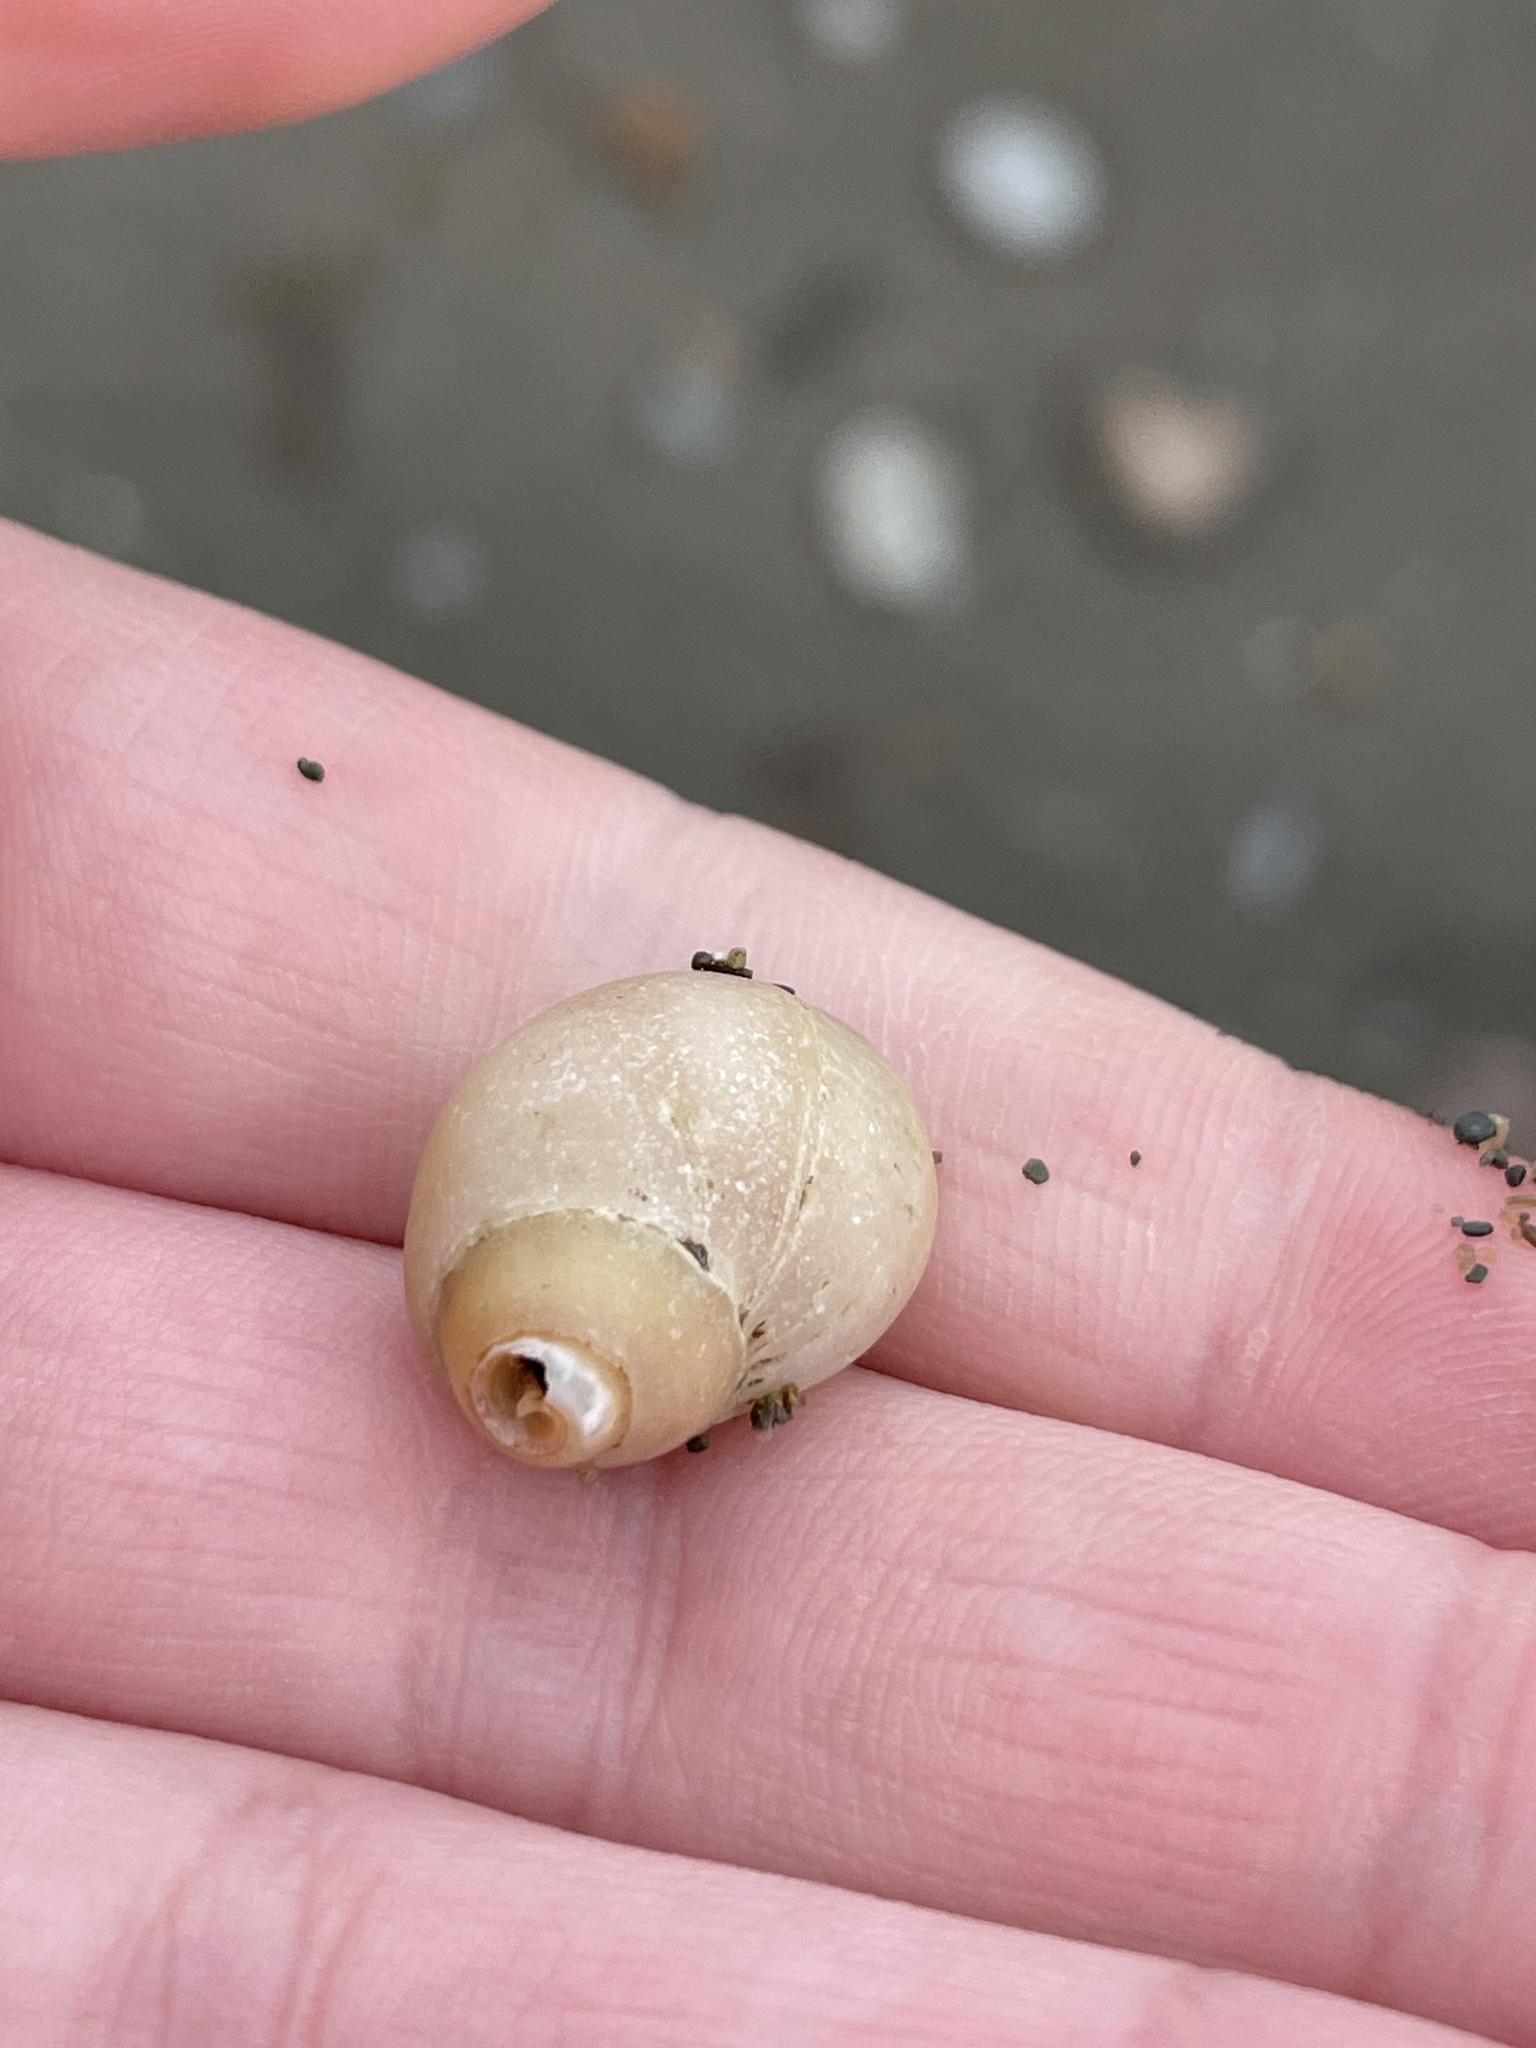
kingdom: Animalia
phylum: Mollusca
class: Gastropoda
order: Neogastropoda
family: Muricidae
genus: Nucella
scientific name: Nucella lapillus
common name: Dog whelk
